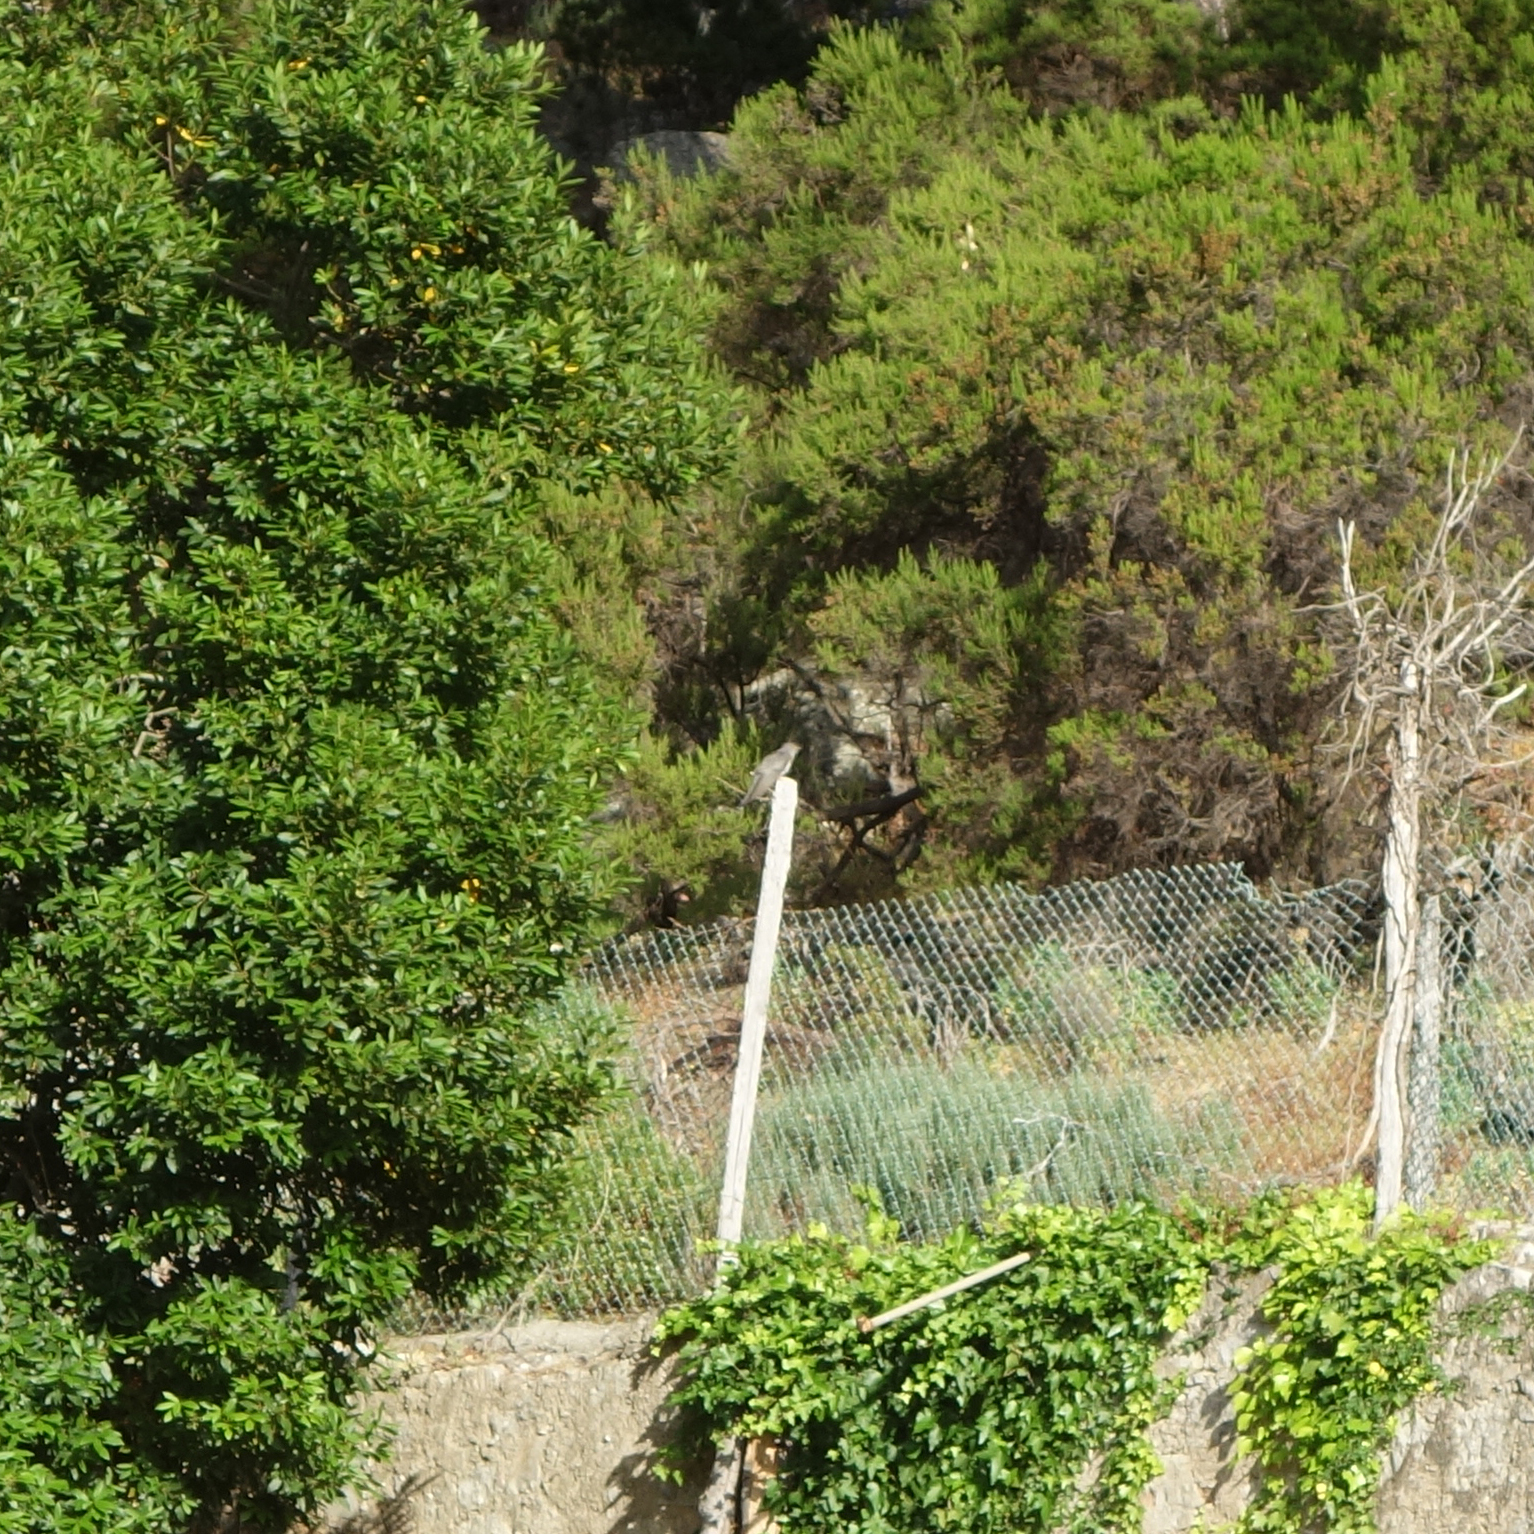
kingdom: Animalia
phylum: Chordata
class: Aves
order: Cuculiformes
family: Cuculidae
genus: Cuculus
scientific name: Cuculus canorus
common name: Common cuckoo
